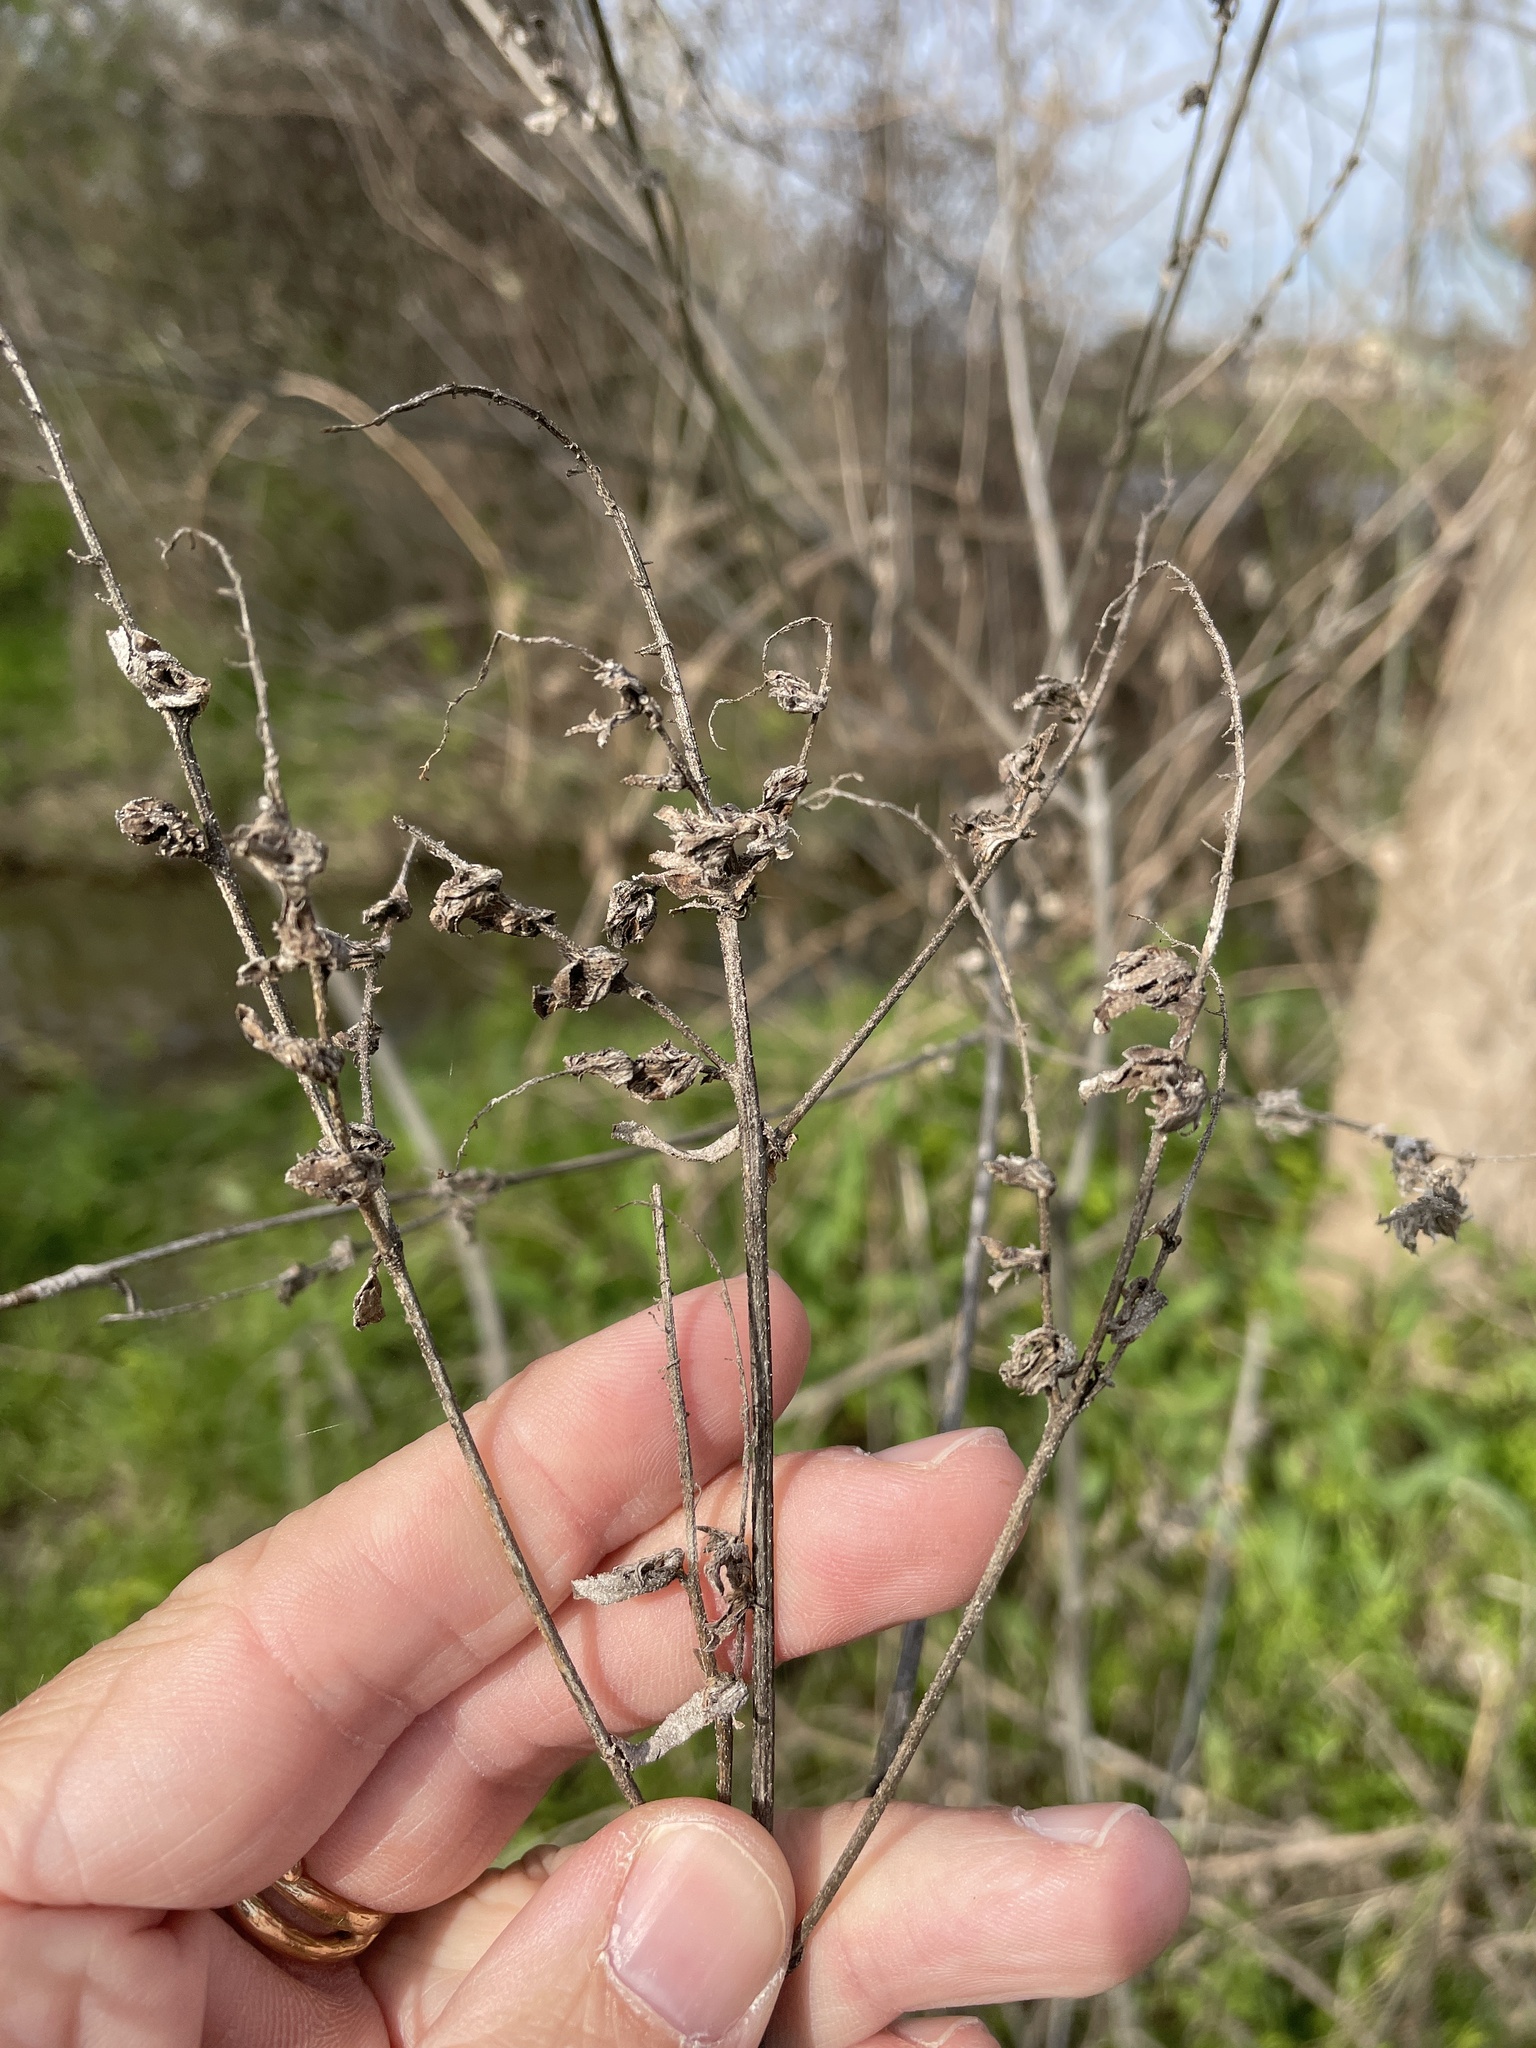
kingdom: Plantae
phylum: Tracheophyta
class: Magnoliopsida
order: Asterales
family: Asteraceae
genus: Ambrosia
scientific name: Ambrosia trifida
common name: Giant ragweed
